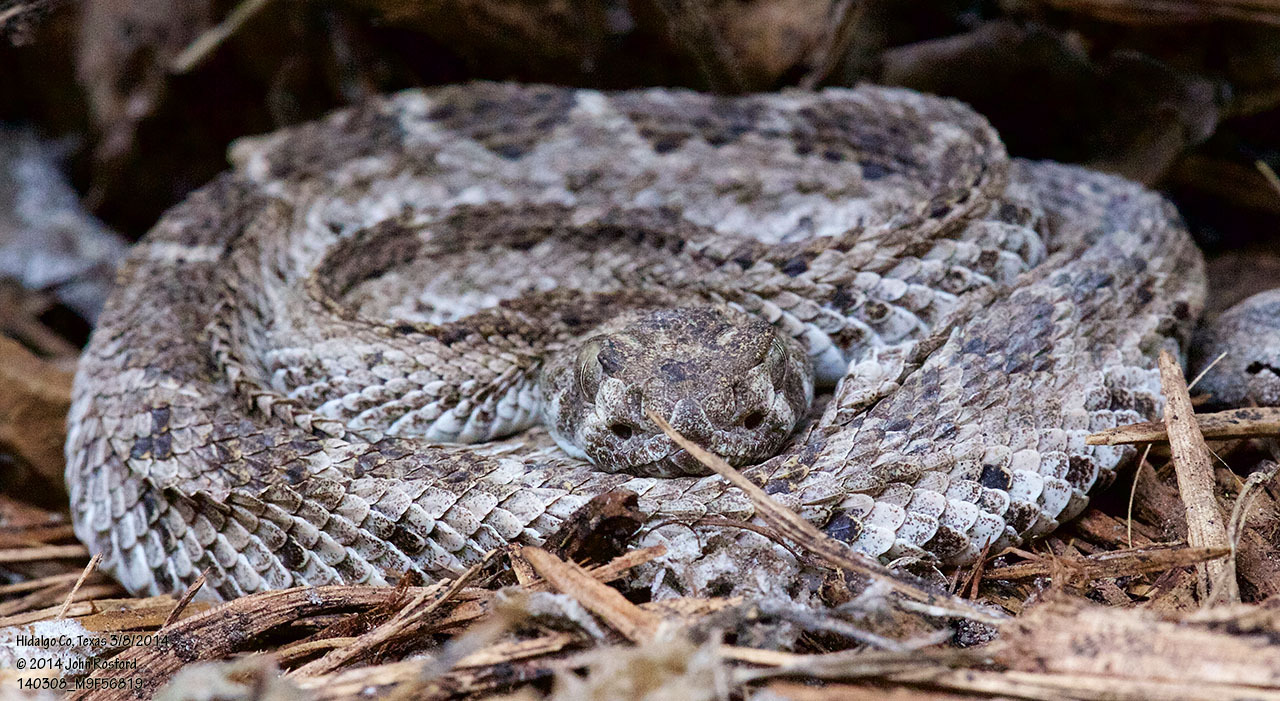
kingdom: Animalia
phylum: Chordata
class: Squamata
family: Viperidae
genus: Crotalus
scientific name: Crotalus atrox
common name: Western diamond-backed rattlesnake
